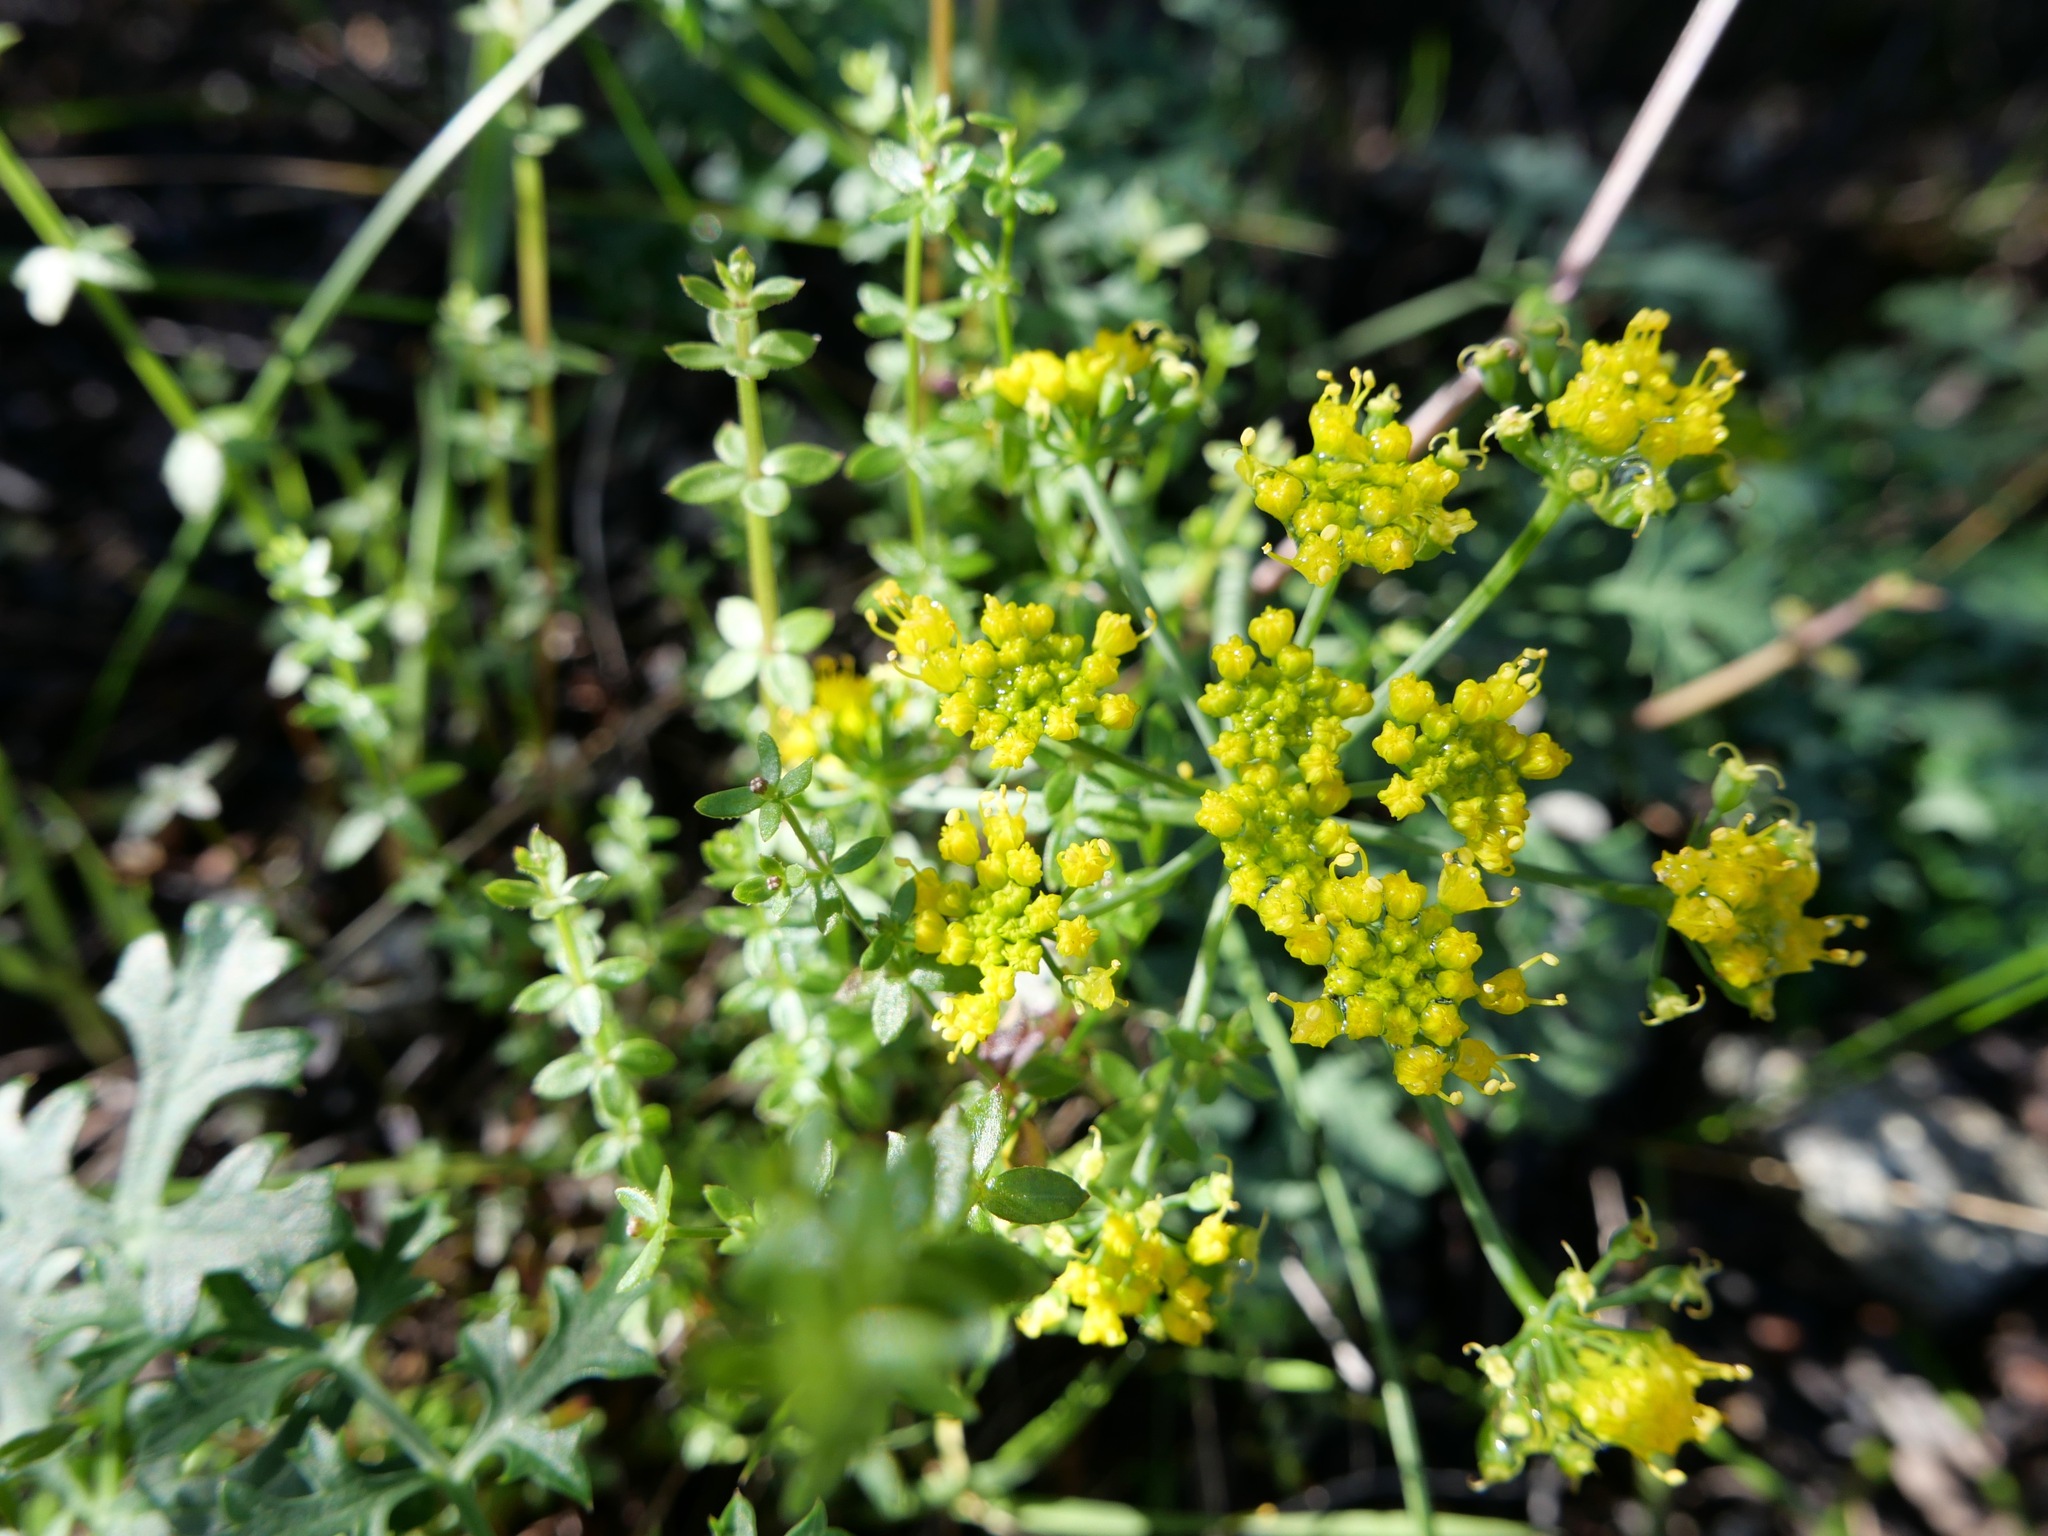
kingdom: Plantae
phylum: Tracheophyta
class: Magnoliopsida
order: Apiales
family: Apiaceae
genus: Lomatium
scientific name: Lomatium parvifolium
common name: Small-leaf lomatium
